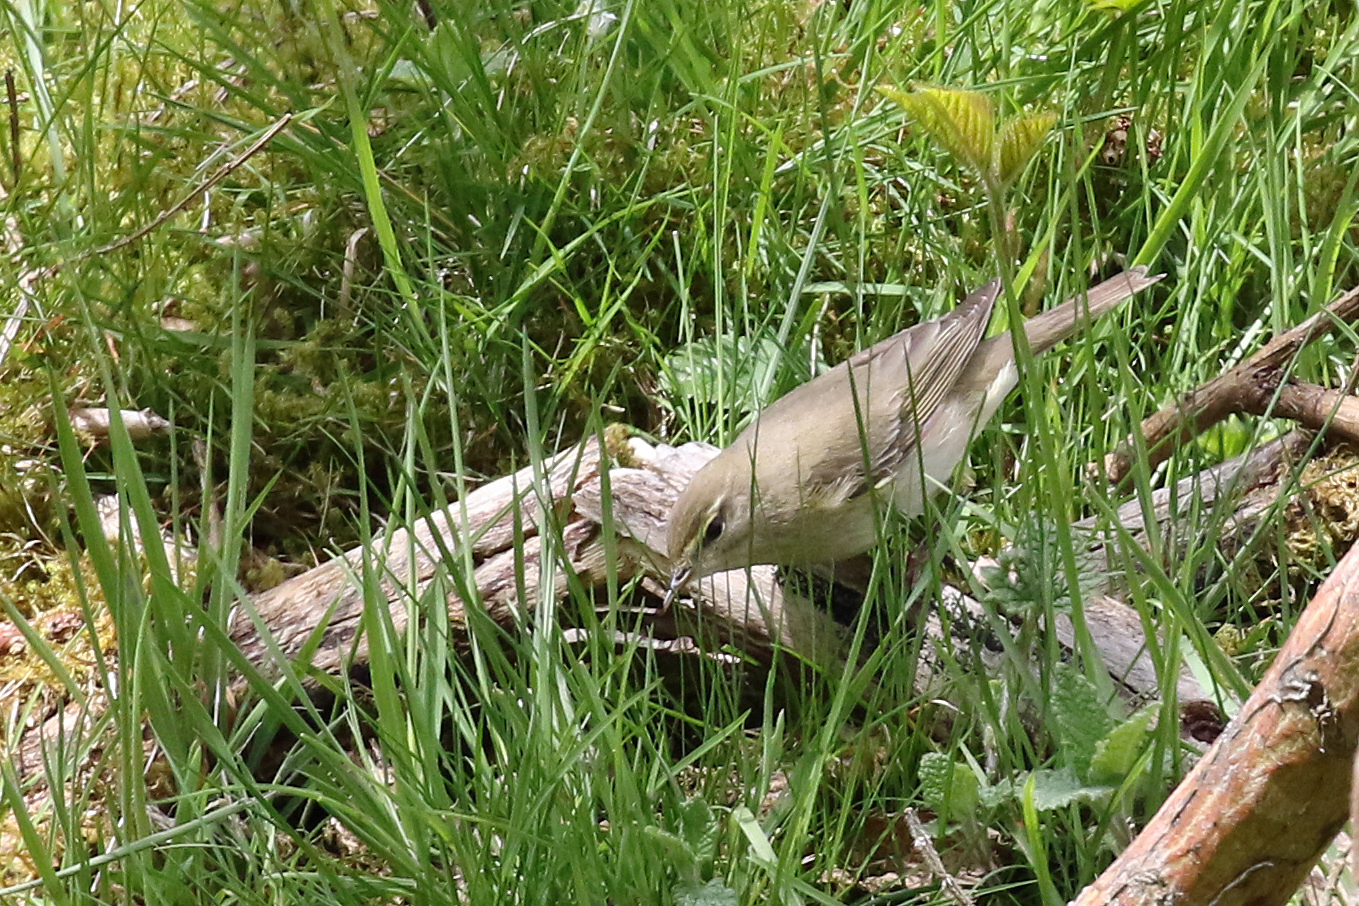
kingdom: Animalia
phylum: Chordata
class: Aves
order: Passeriformes
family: Sylviidae
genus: Sylvia
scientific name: Sylvia borin
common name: Garden warbler
